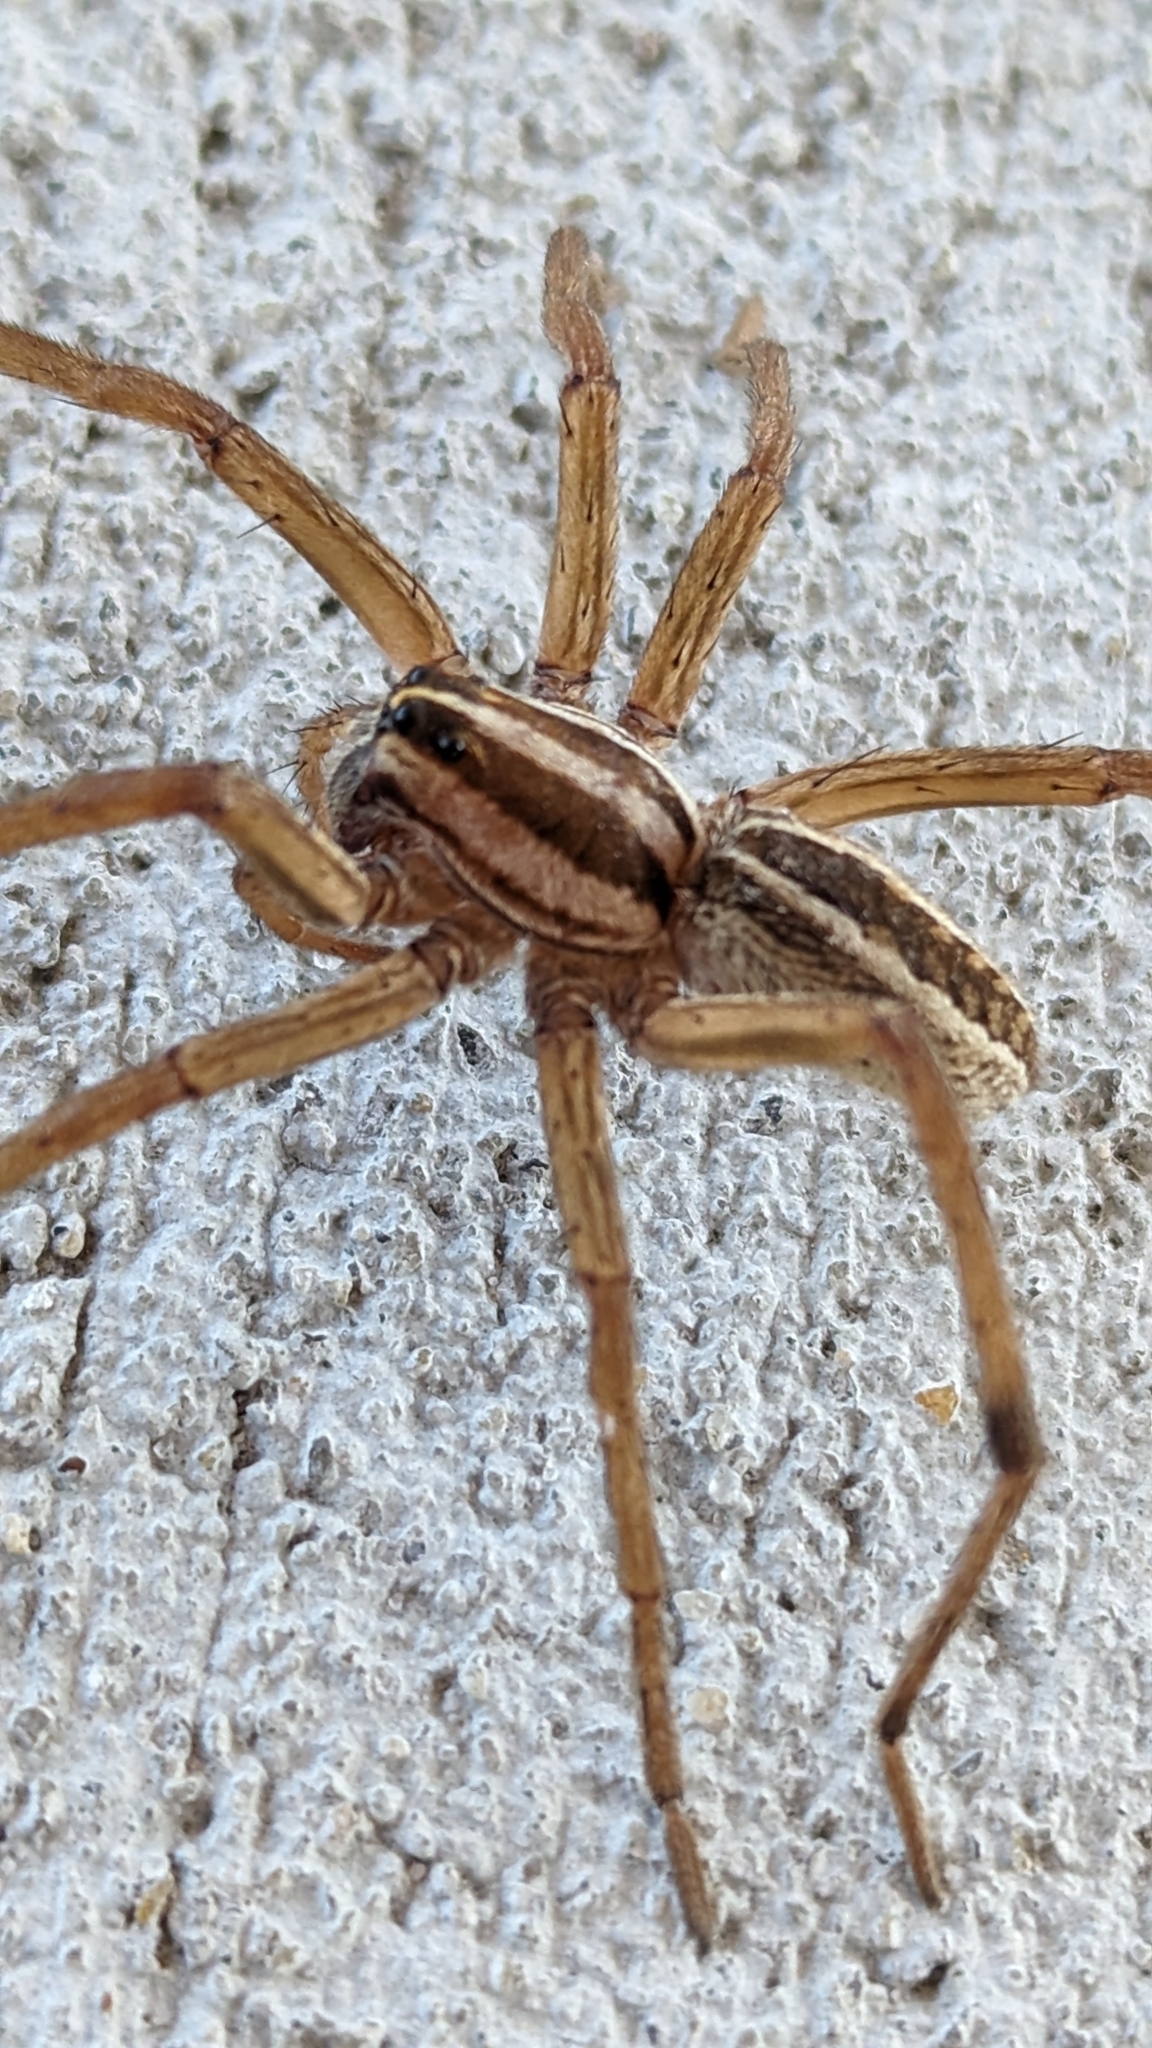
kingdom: Animalia
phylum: Arthropoda
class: Arachnida
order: Araneae
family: Lycosidae
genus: Rabidosa
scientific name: Rabidosa rabida
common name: Rabid wolf spider
